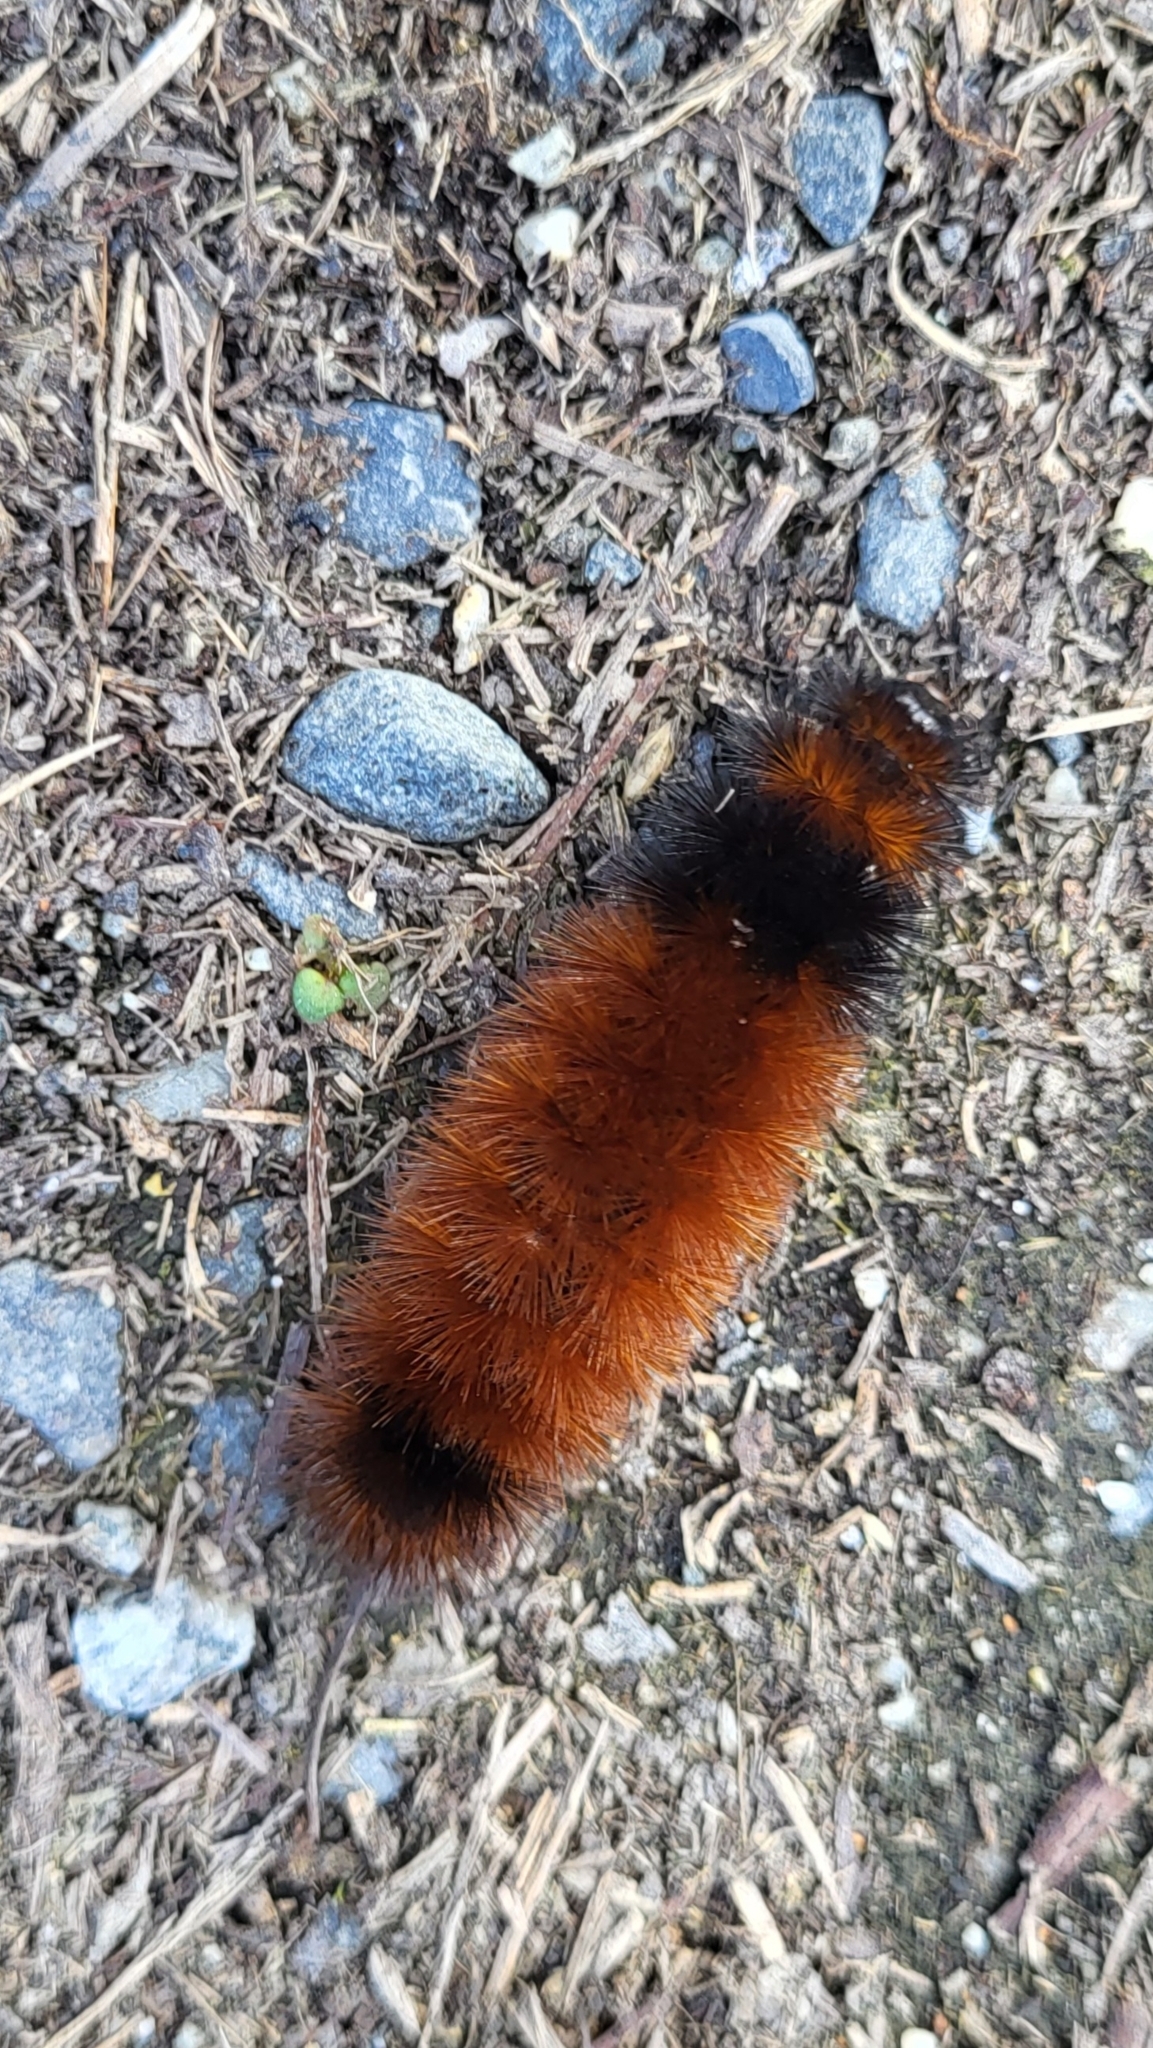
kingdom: Animalia
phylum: Arthropoda
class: Insecta
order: Lepidoptera
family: Erebidae
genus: Pyrrharctia
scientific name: Pyrrharctia isabella
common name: Isabella tiger moth
